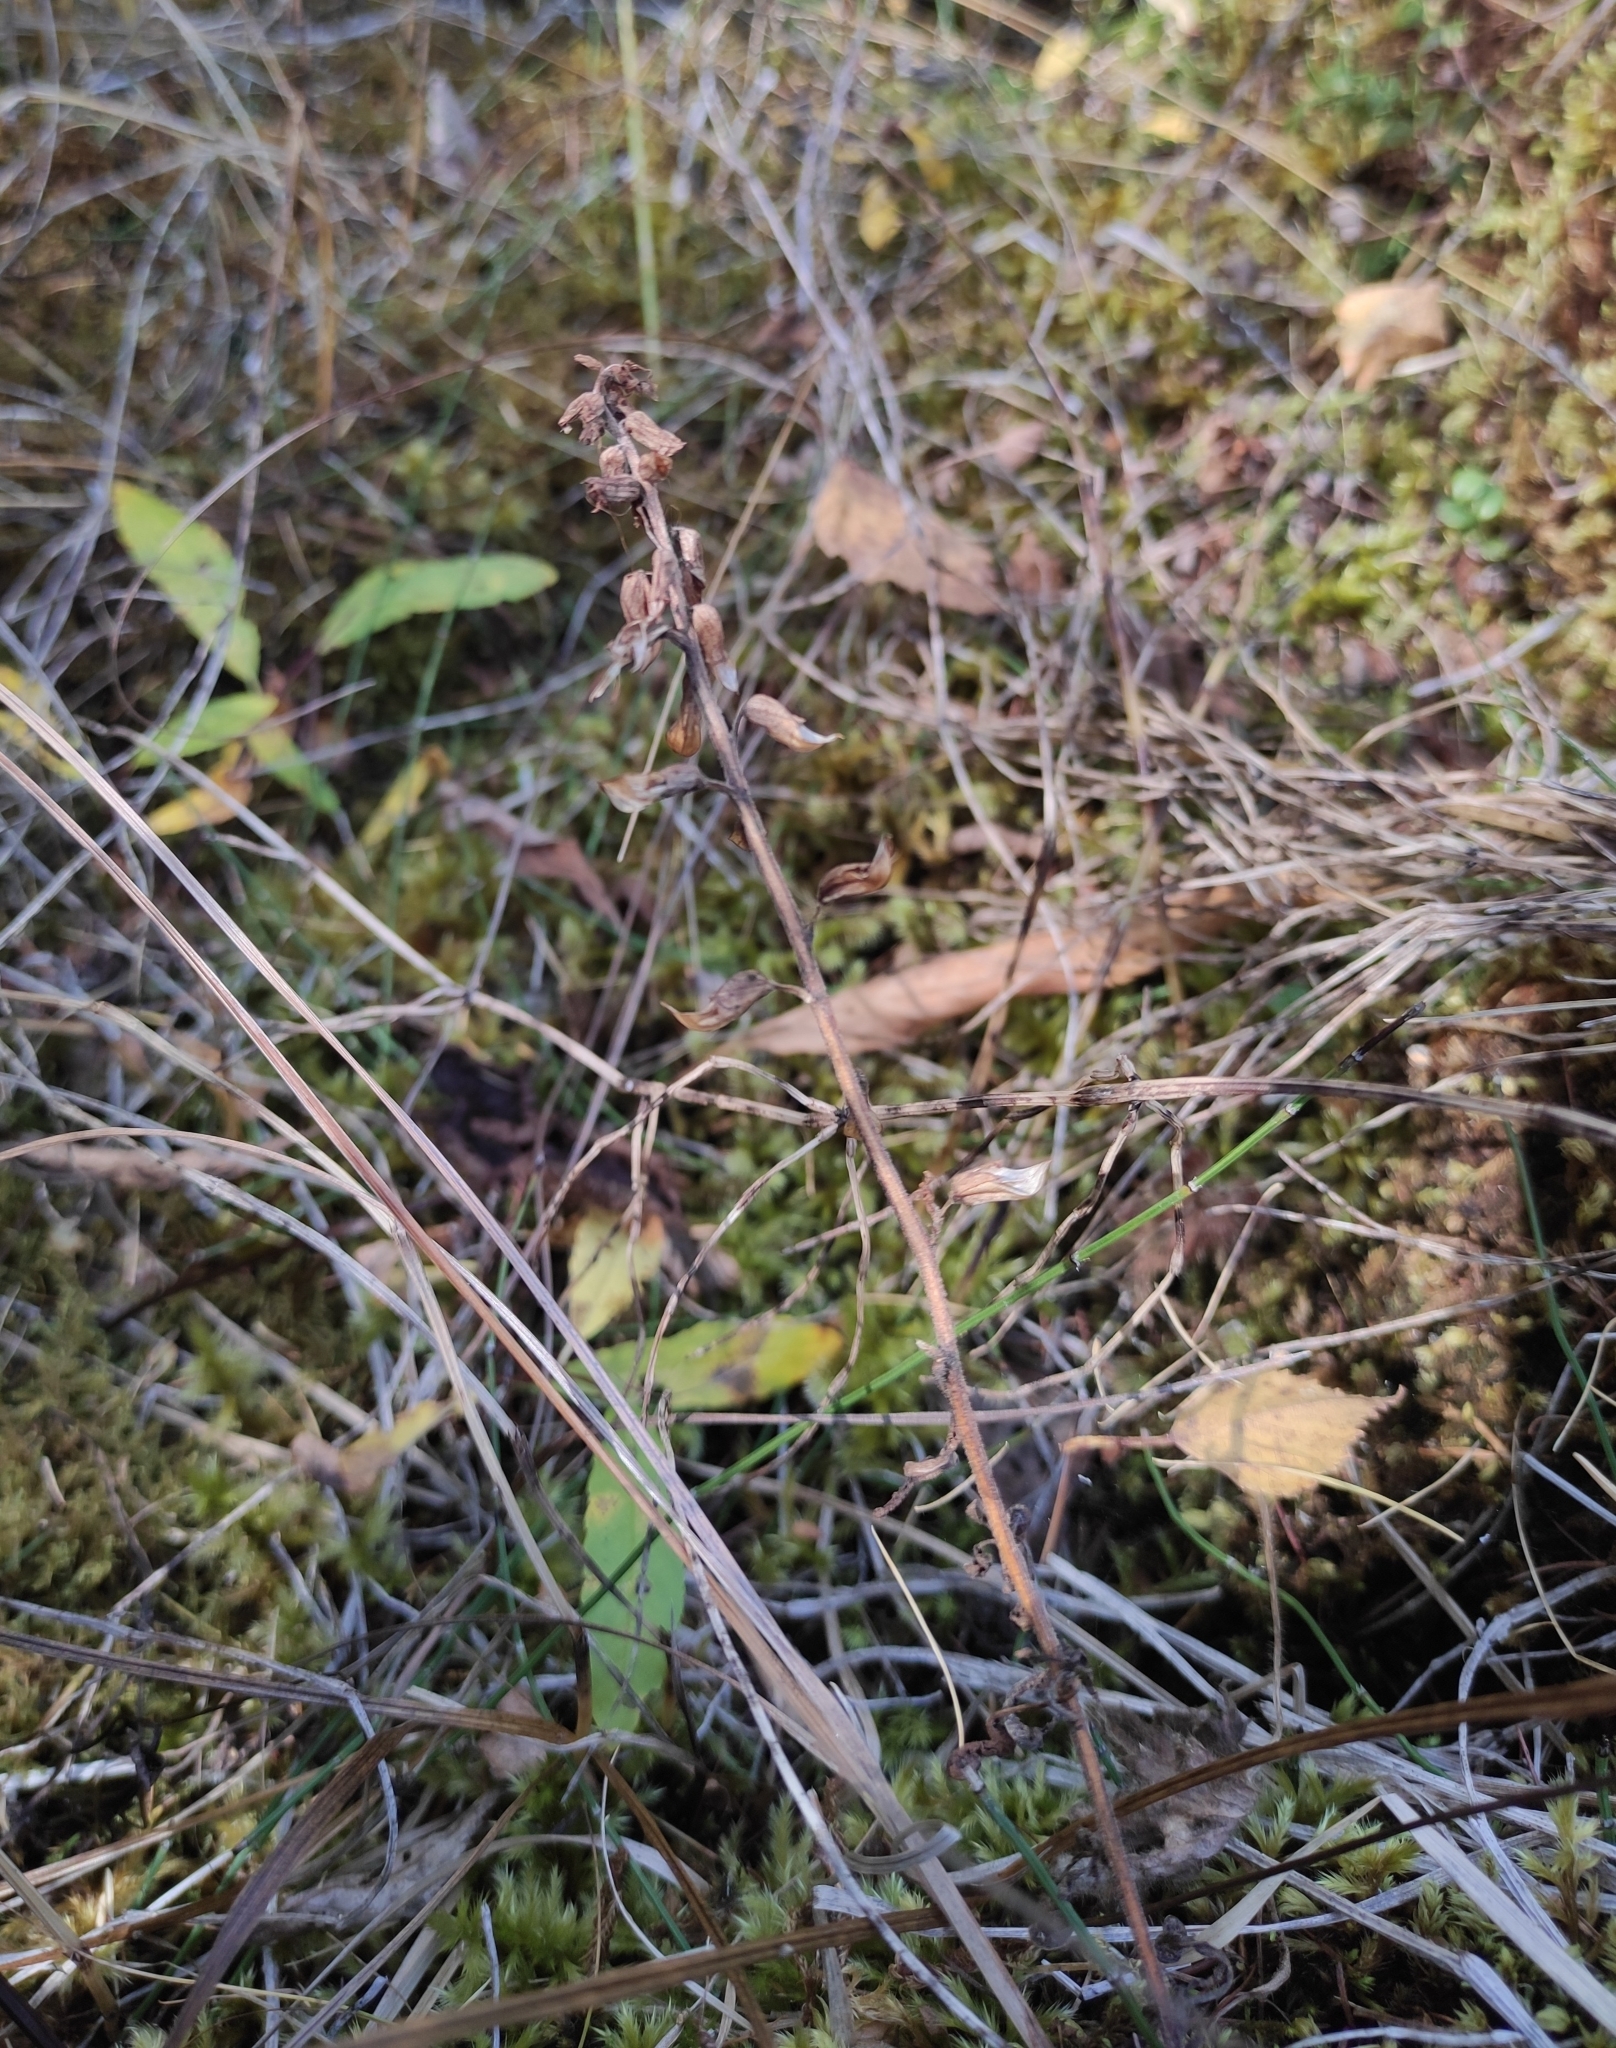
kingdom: Plantae
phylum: Tracheophyta
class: Magnoliopsida
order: Lamiales
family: Orobanchaceae
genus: Pedicularis
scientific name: Pedicularis labradorica
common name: Labrador lousewort
